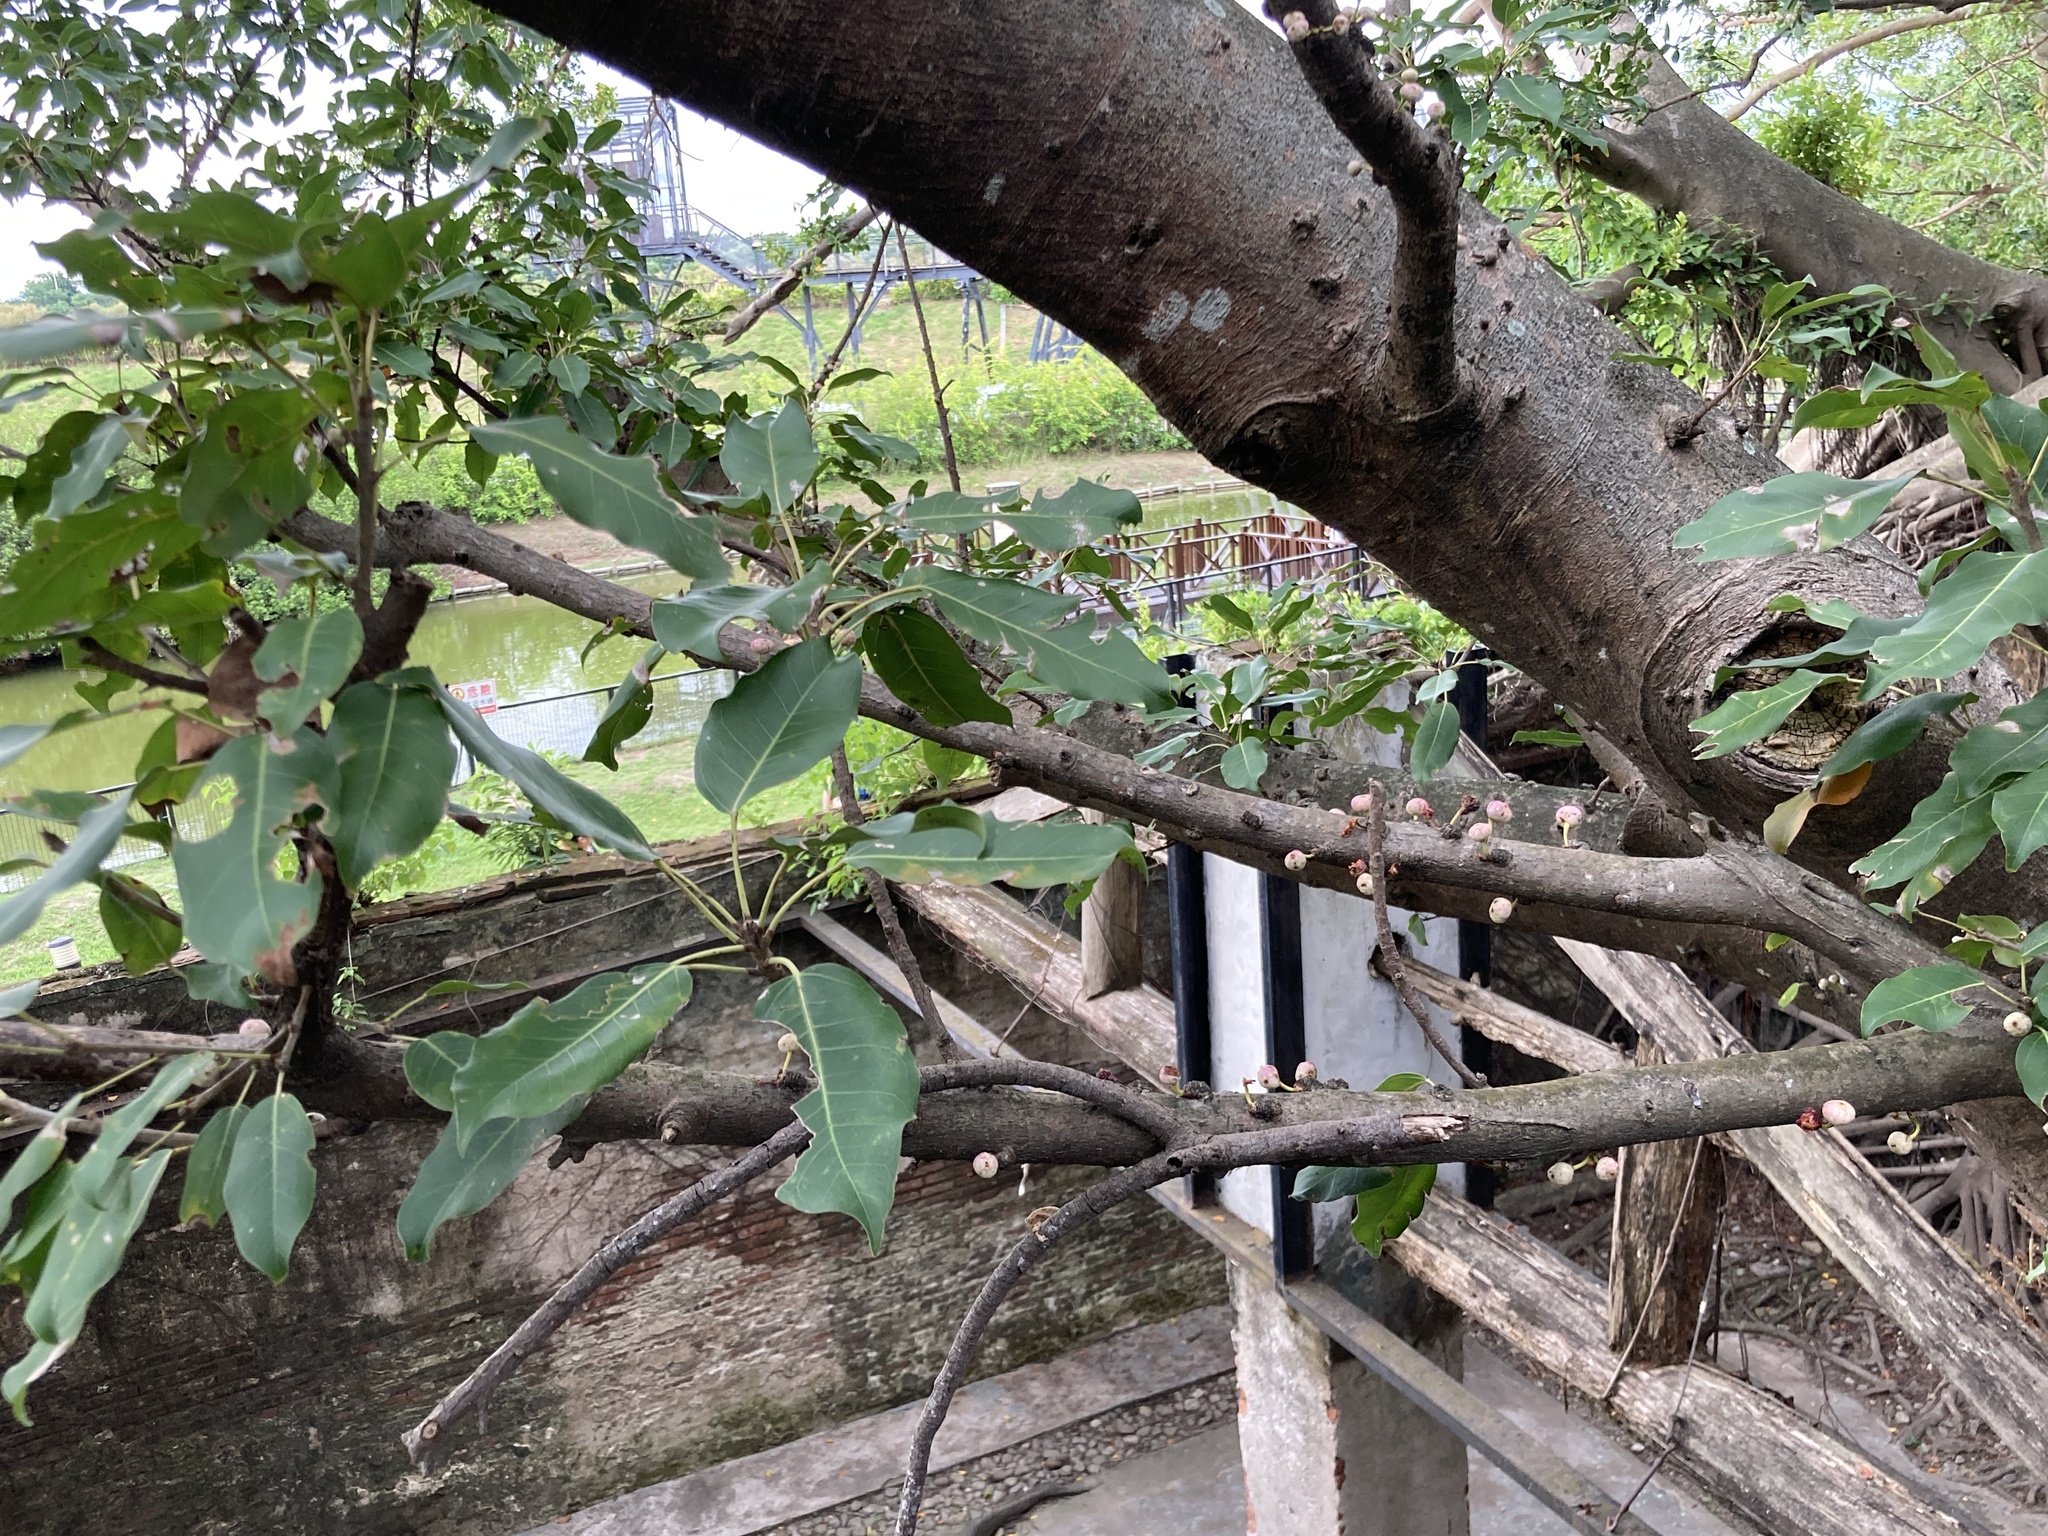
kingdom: Plantae
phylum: Tracheophyta
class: Magnoliopsida
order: Rosales
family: Moraceae
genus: Ficus
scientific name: Ficus subpisocarpa
